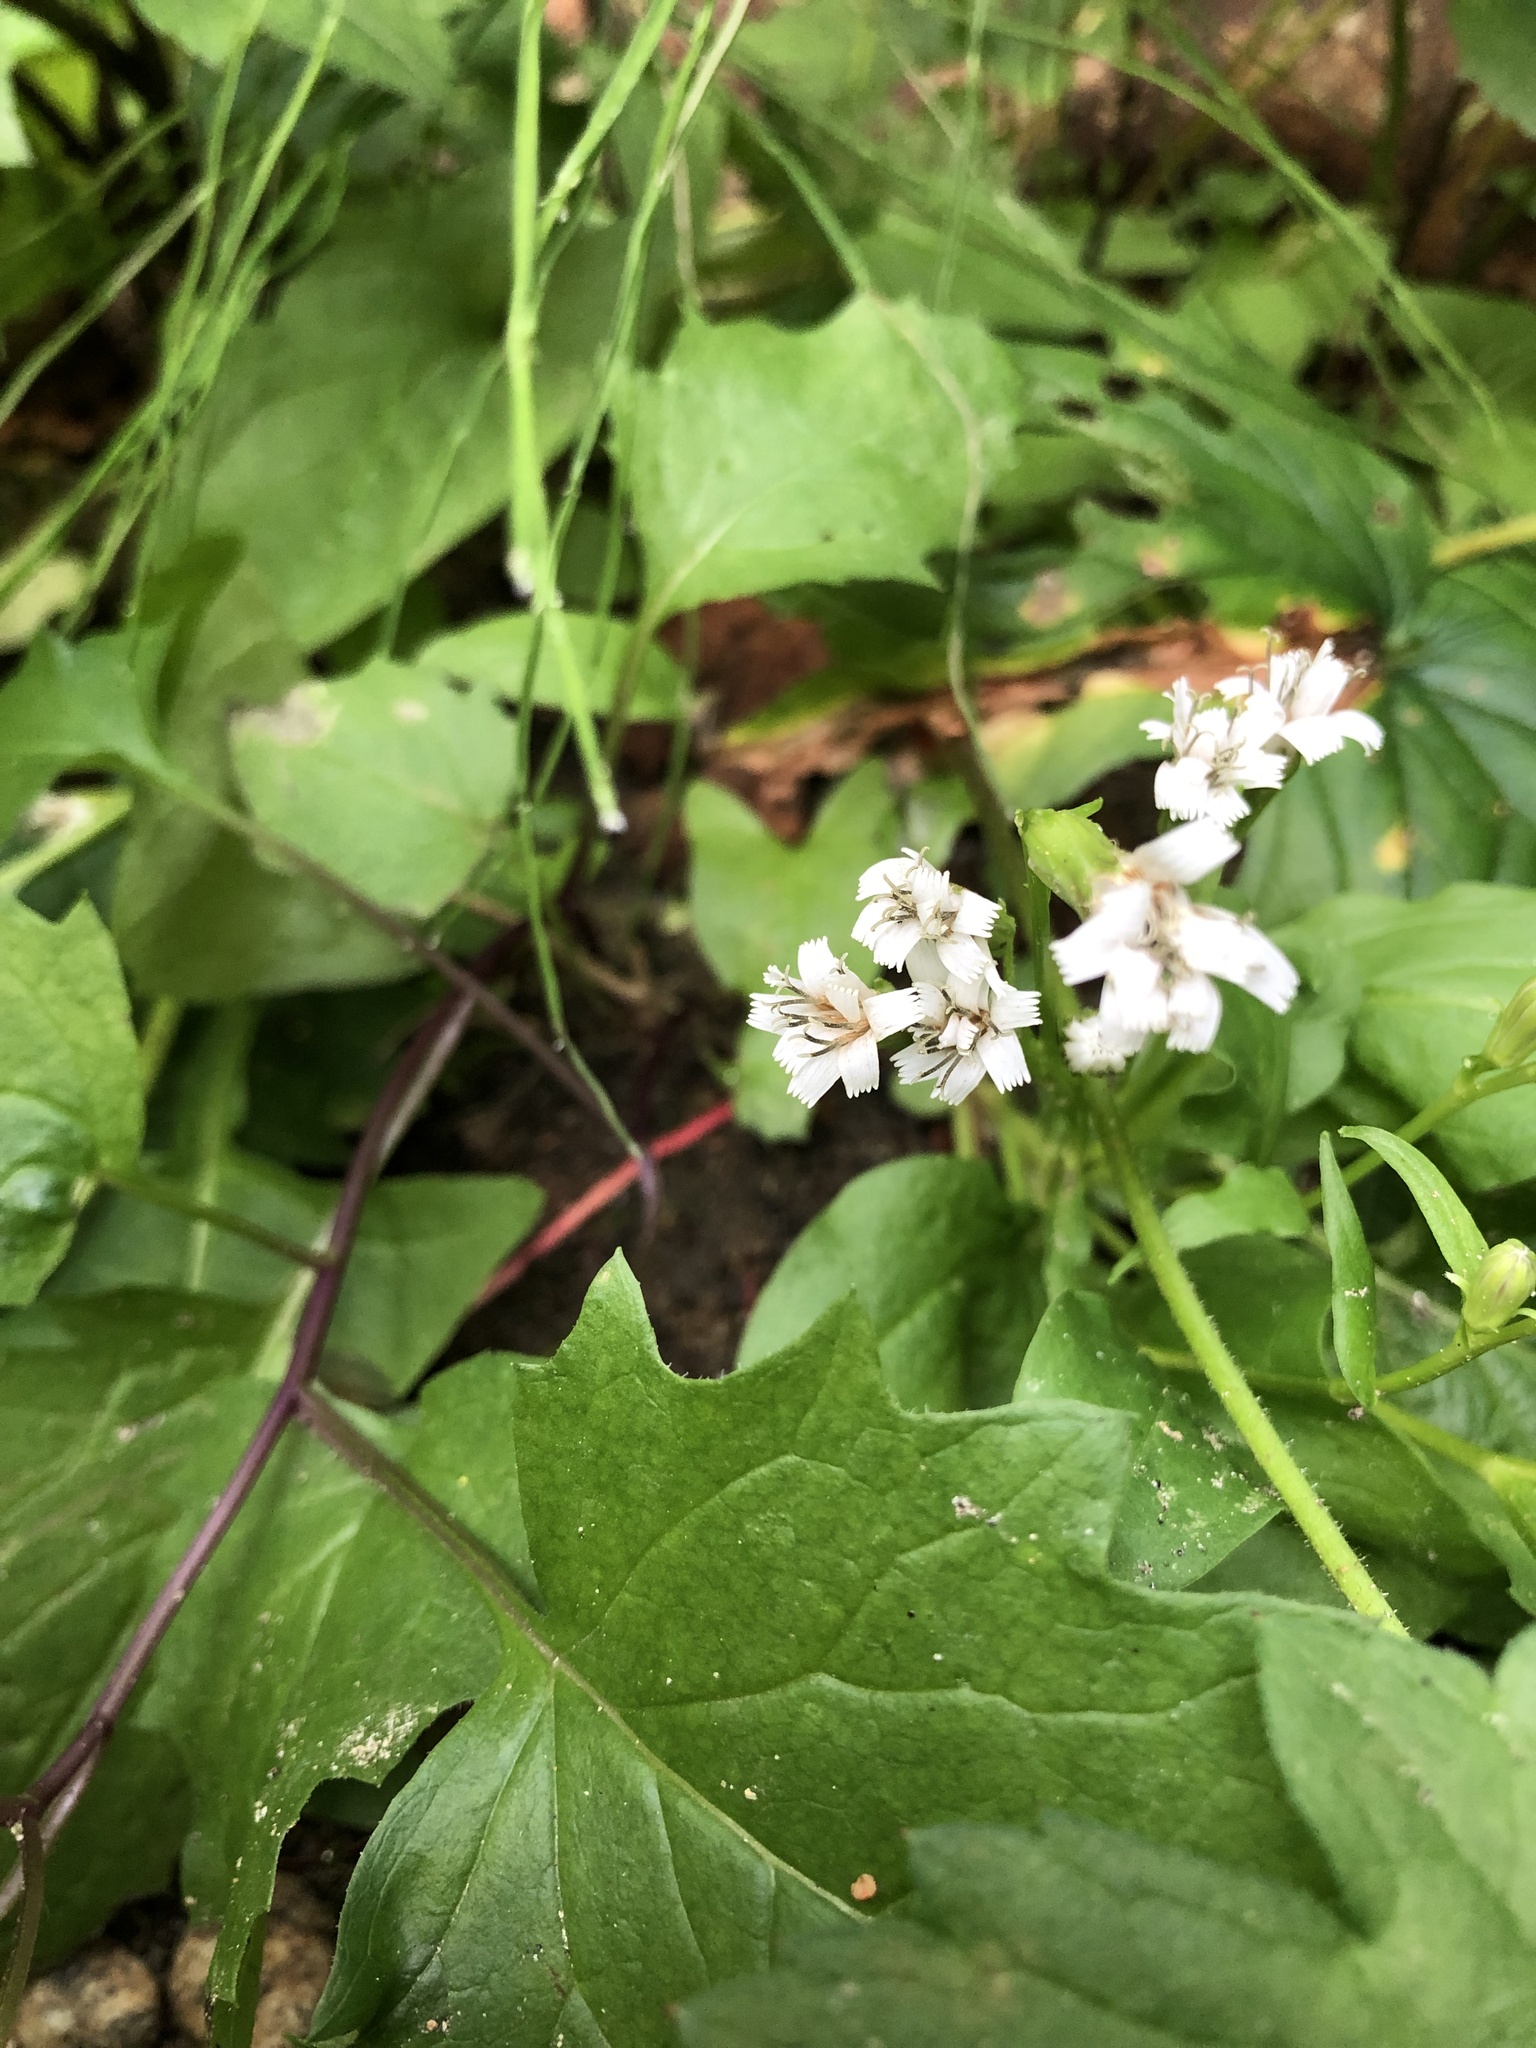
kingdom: Plantae
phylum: Tracheophyta
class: Magnoliopsida
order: Asterales
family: Asteraceae
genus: Nabalus
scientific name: Nabalus sagittatus
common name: Arrowleaf snakeroot
